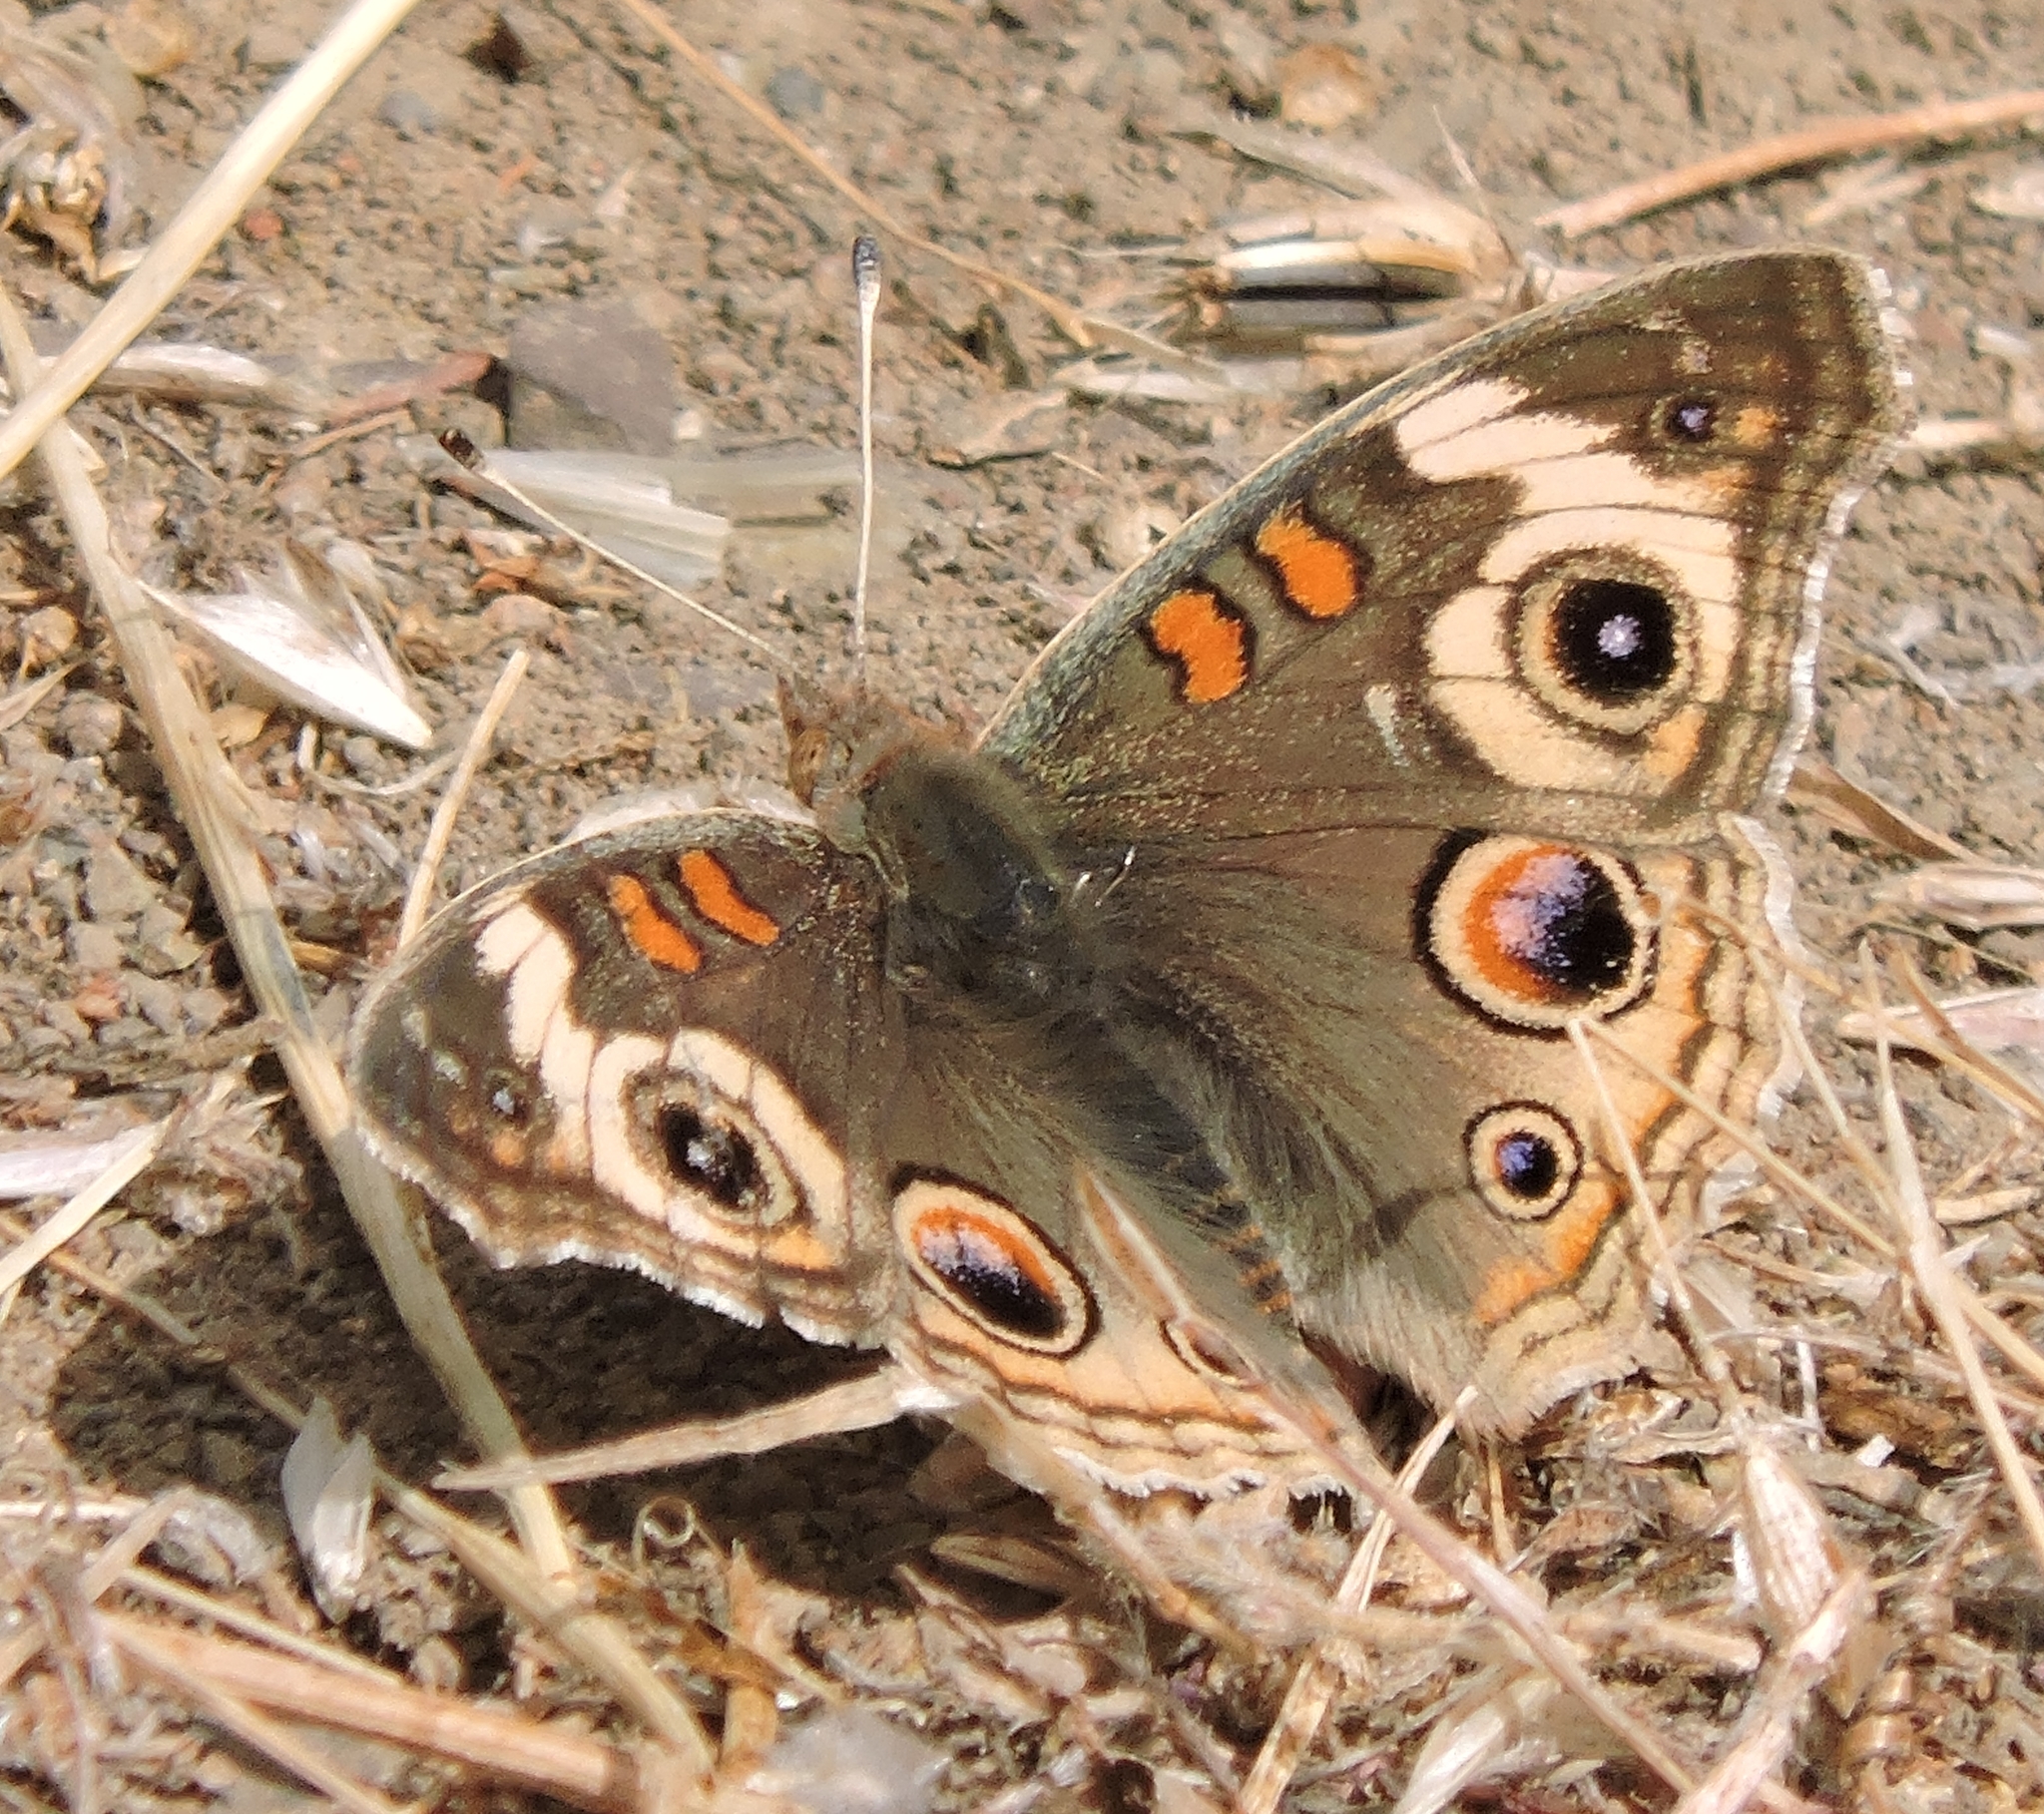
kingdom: Animalia
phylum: Arthropoda
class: Insecta
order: Lepidoptera
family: Nymphalidae
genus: Junonia
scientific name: Junonia grisea
